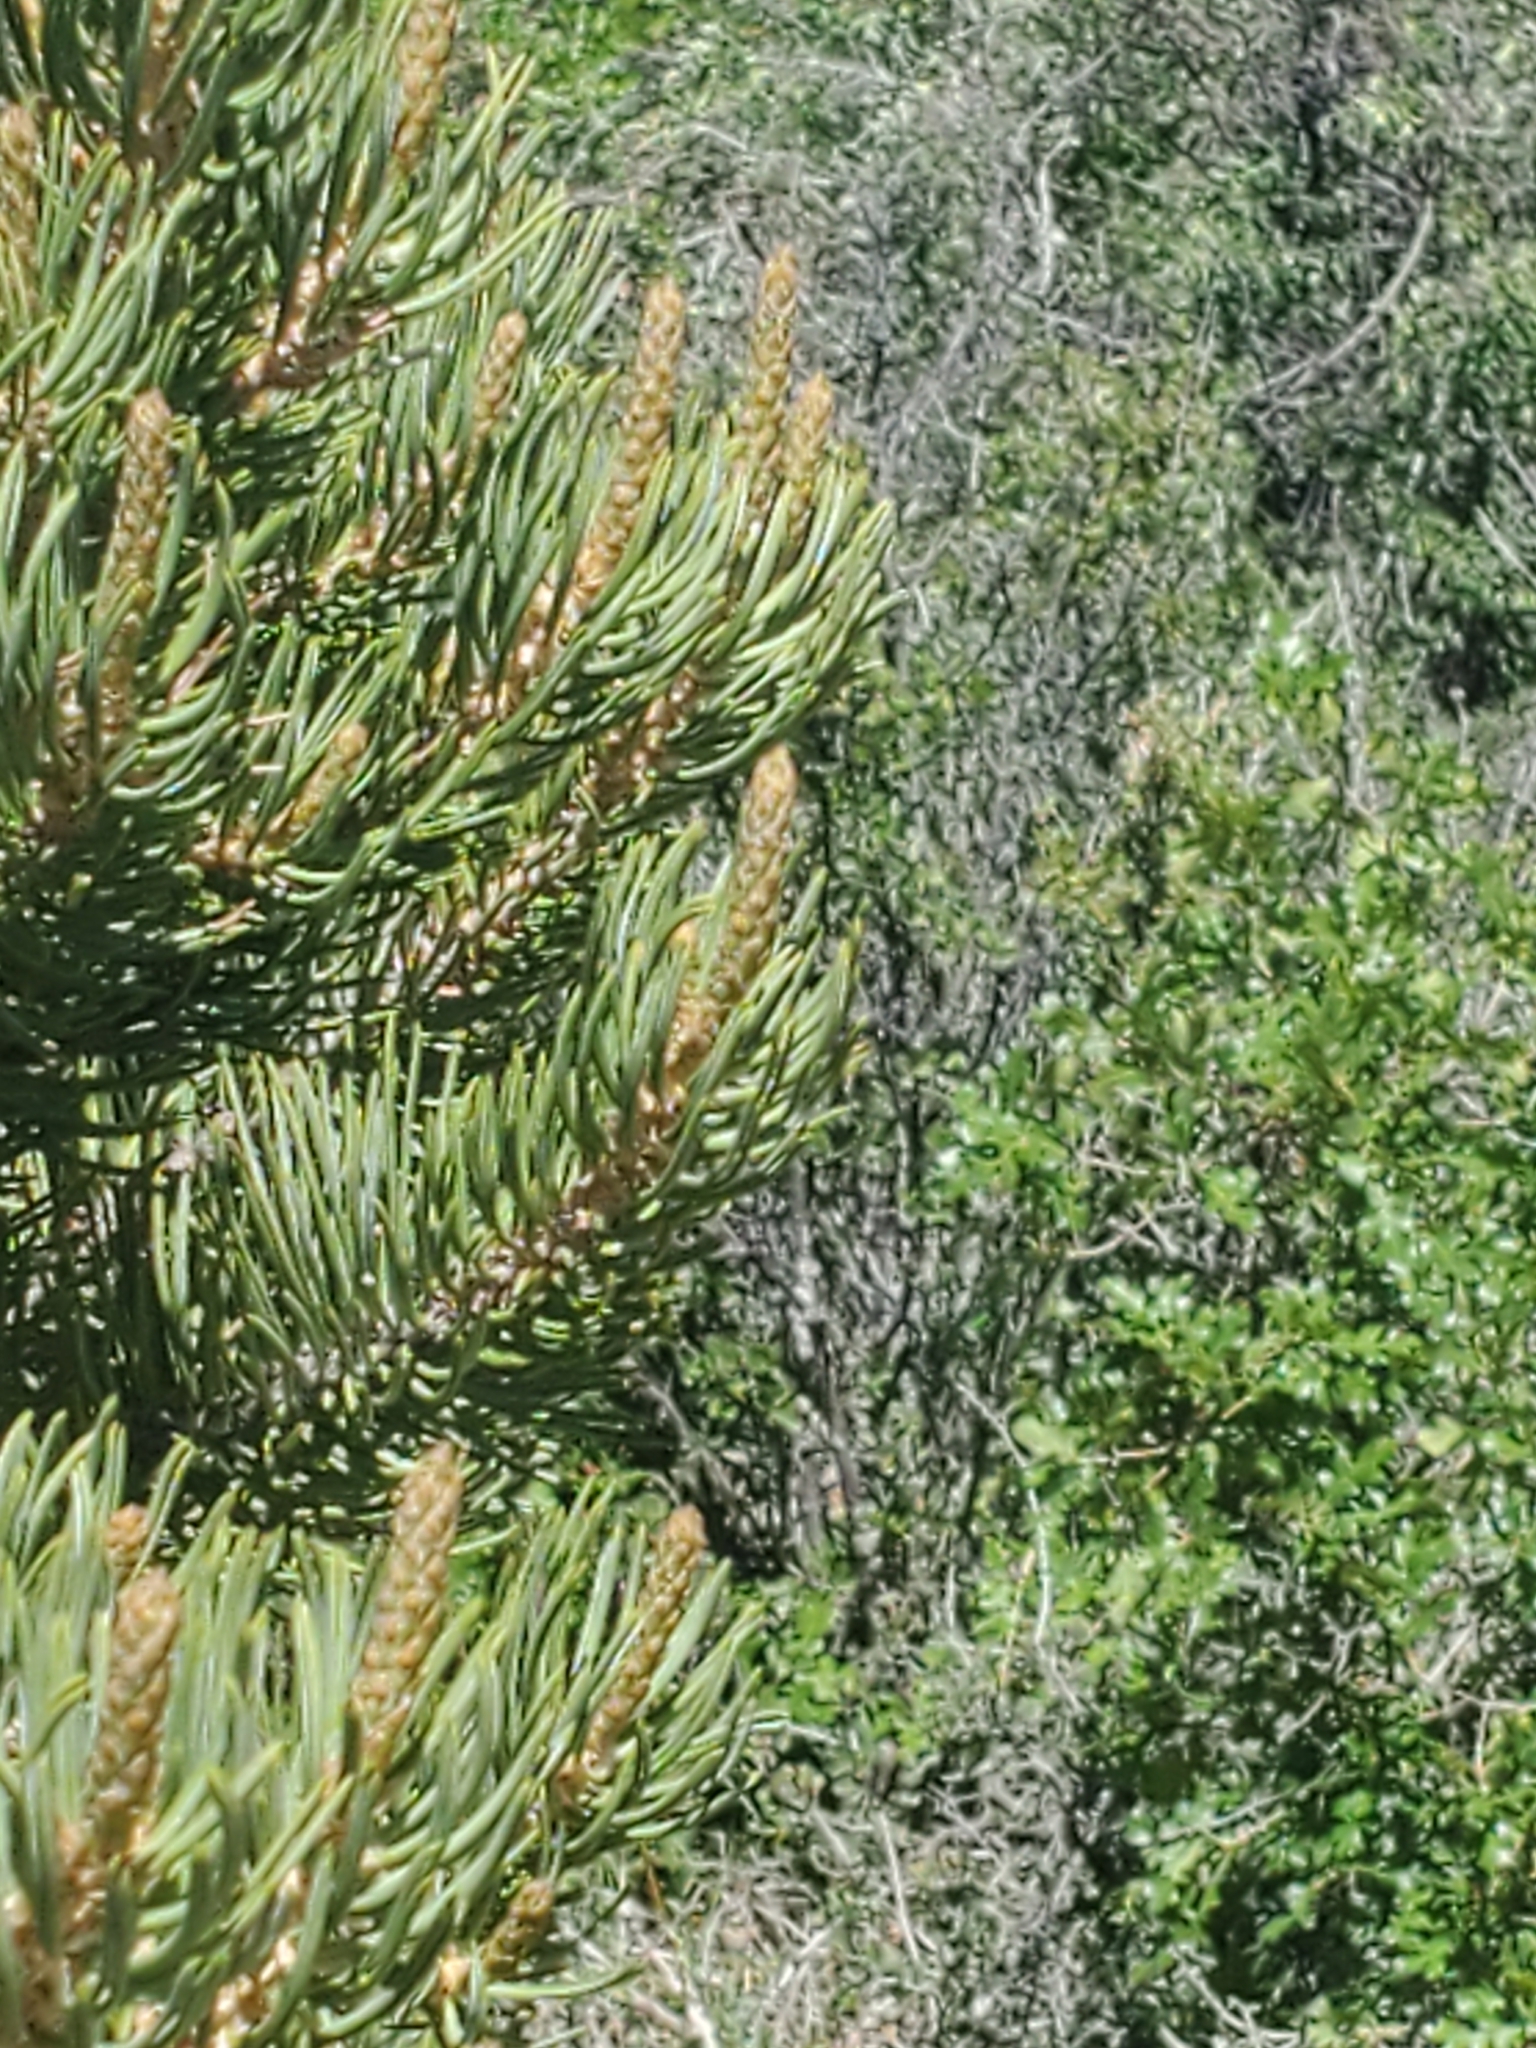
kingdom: Plantae
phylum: Tracheophyta
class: Pinopsida
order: Pinales
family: Pinaceae
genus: Pinus
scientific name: Pinus edulis
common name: Colorado pinyon
